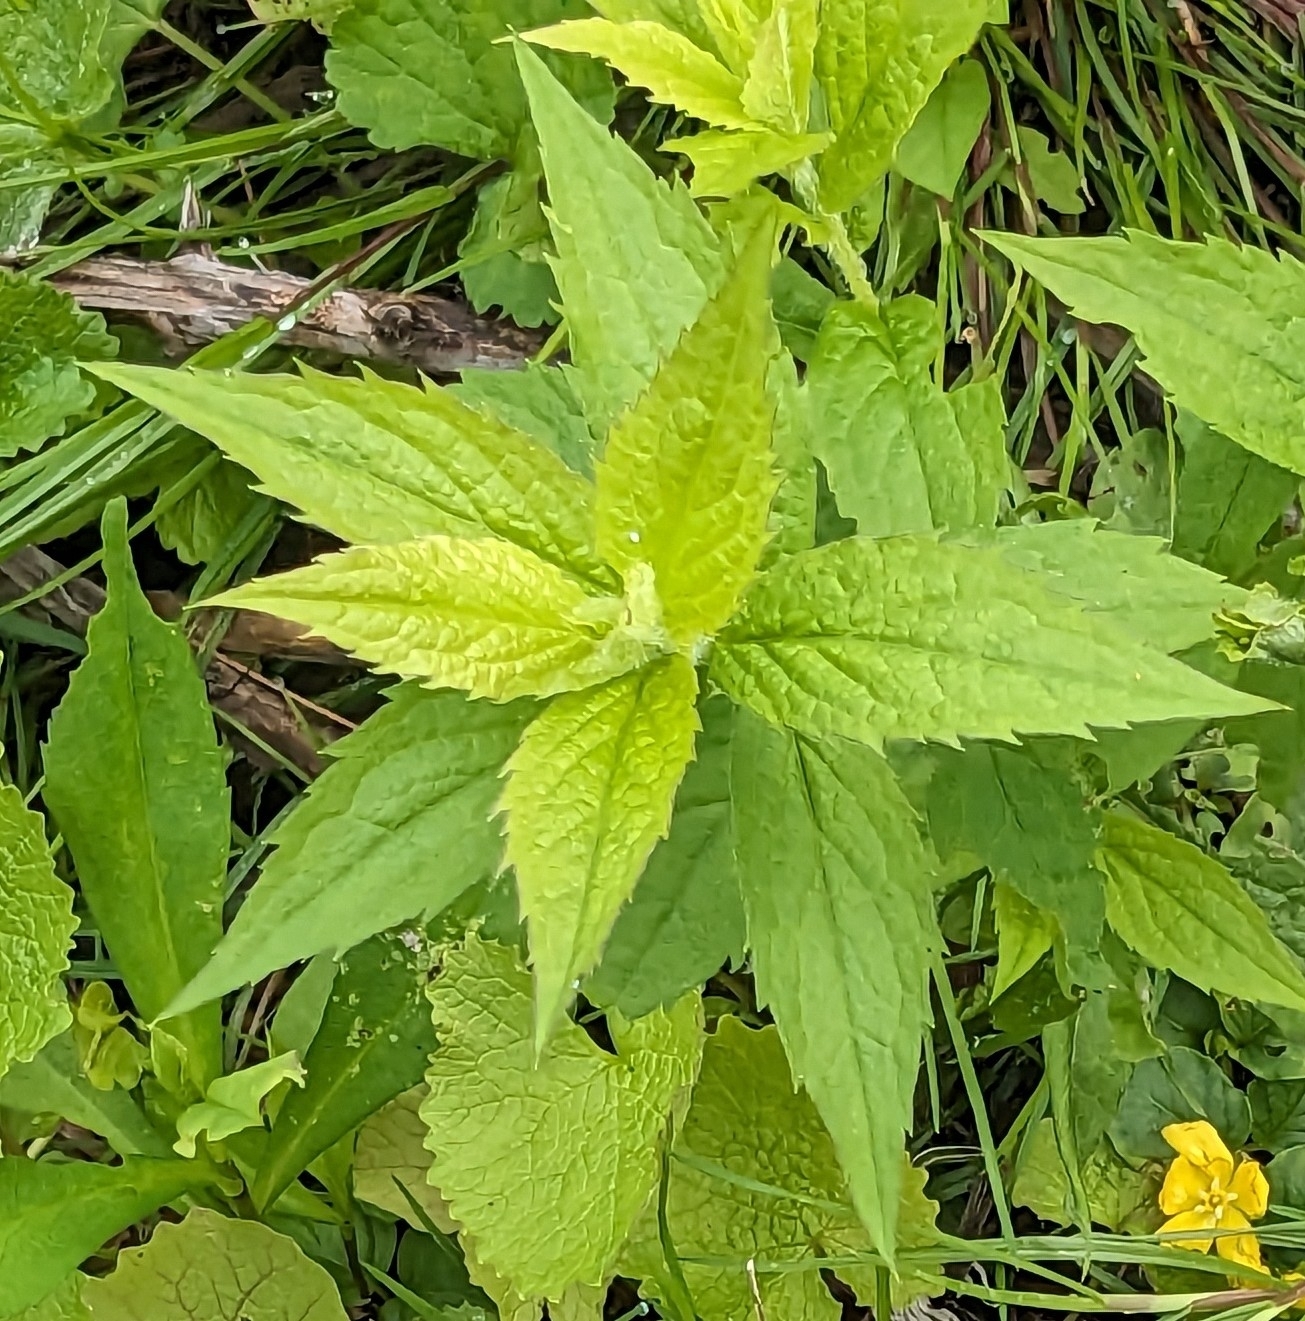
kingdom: Plantae
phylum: Tracheophyta
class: Magnoliopsida
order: Asterales
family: Asteraceae
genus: Solidago
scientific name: Solidago rugosa
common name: Rough-stemmed goldenrod
